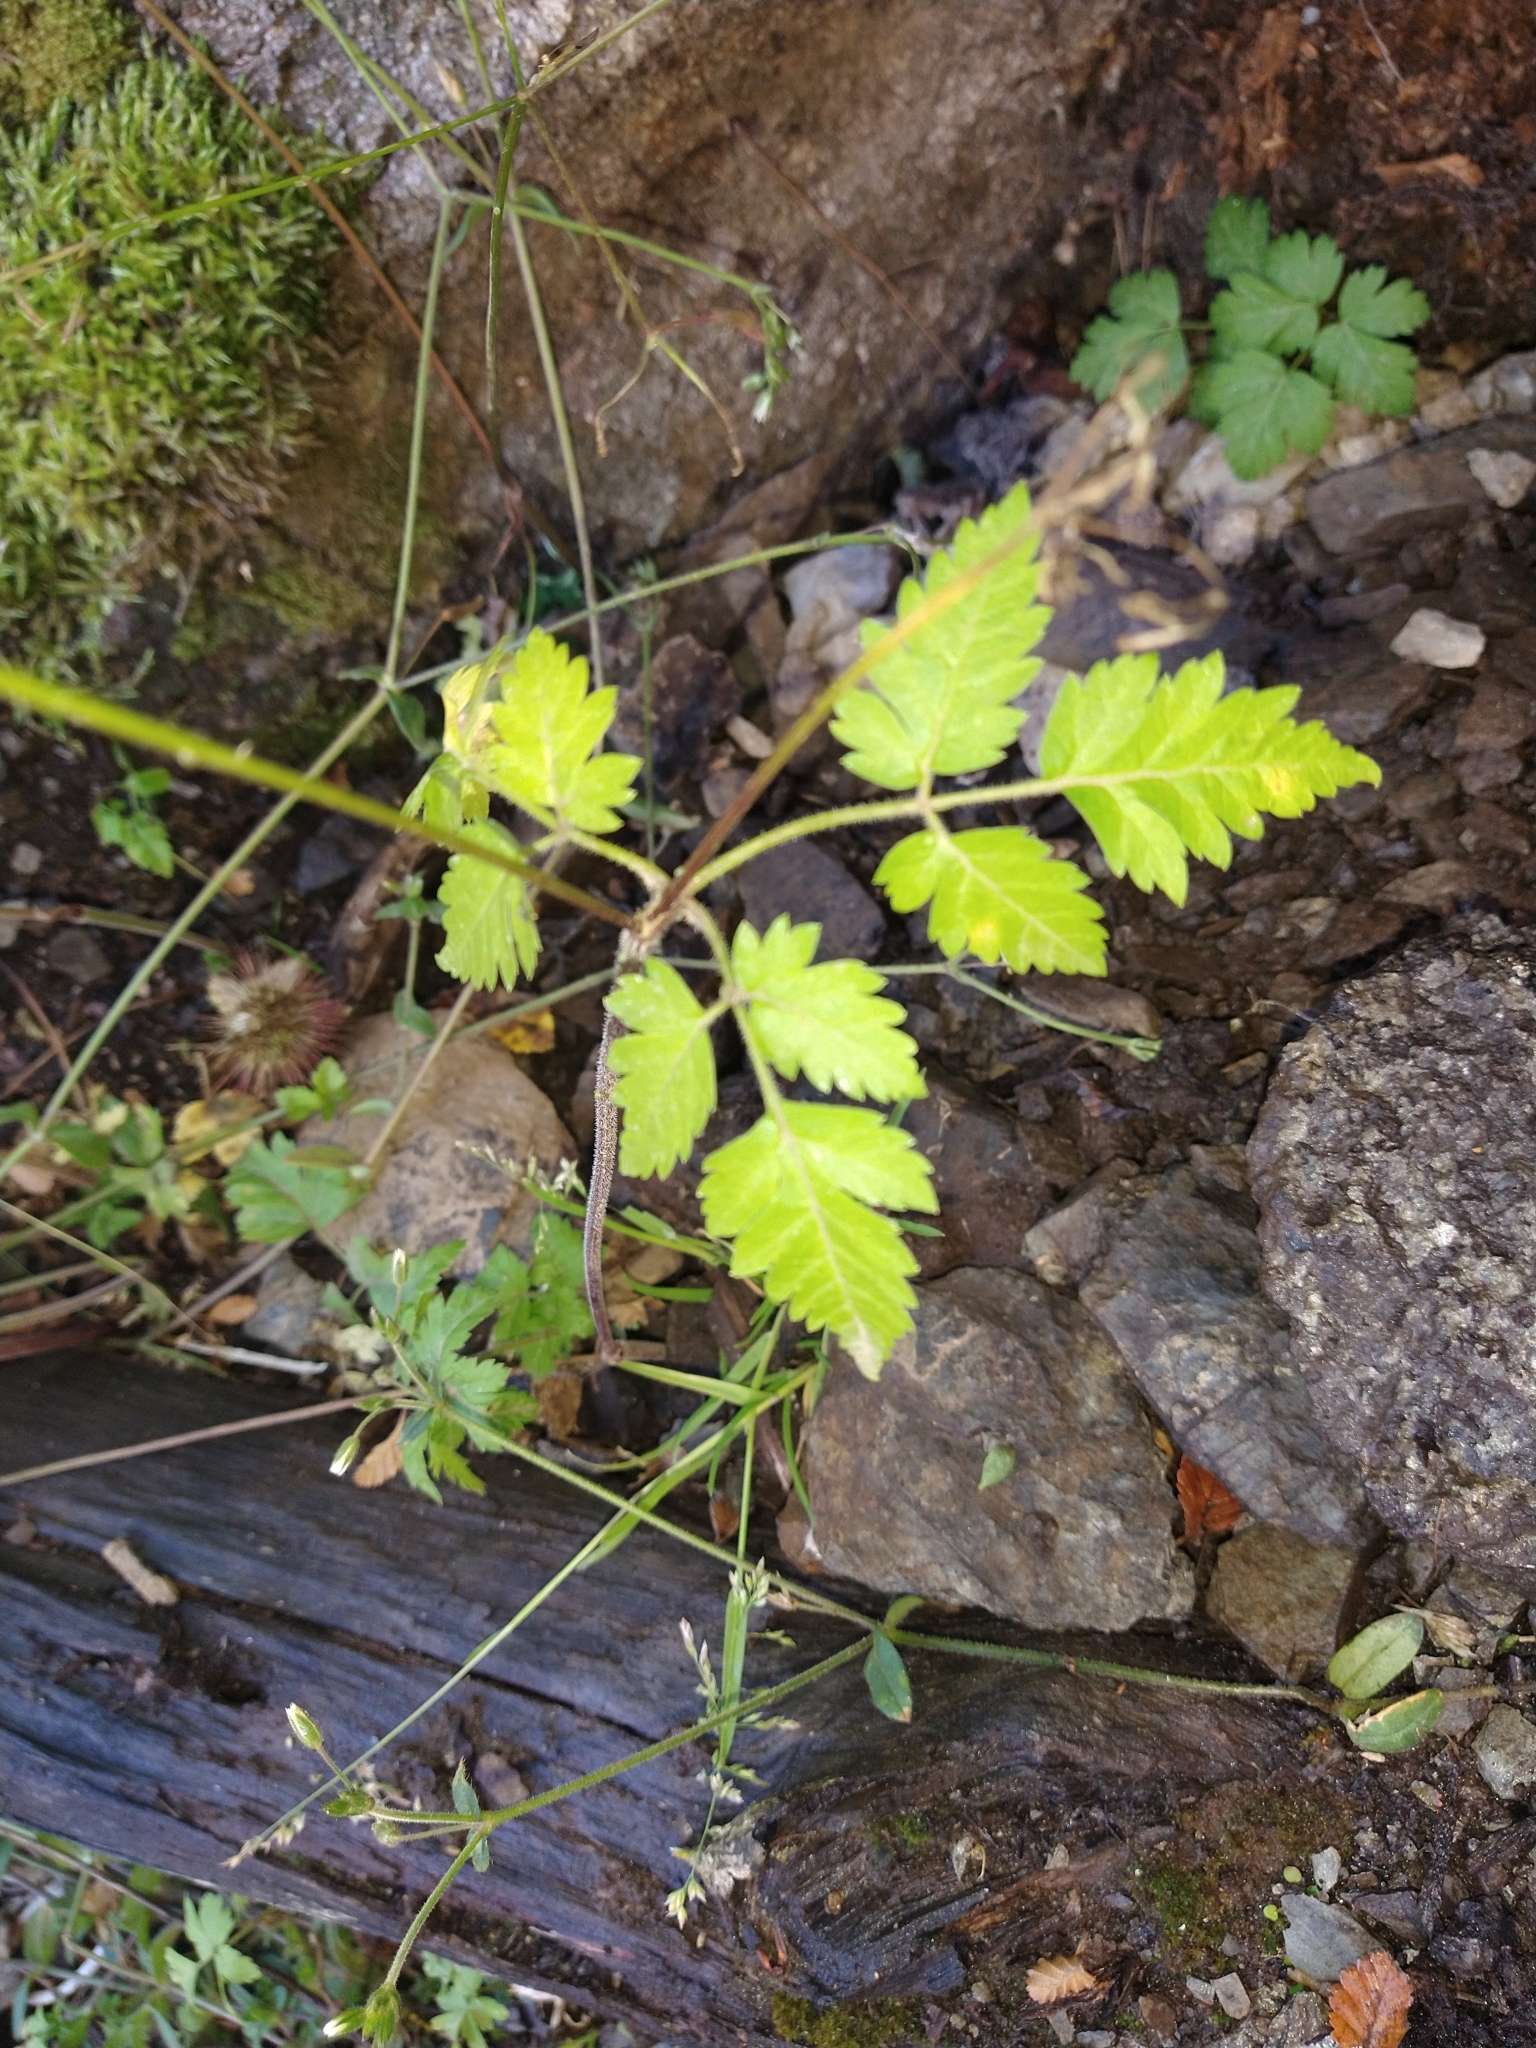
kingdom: Plantae
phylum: Tracheophyta
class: Magnoliopsida
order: Apiales
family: Apiaceae
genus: Osmorhiza
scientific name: Osmorhiza berteroi
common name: Mountain sweet cicely
